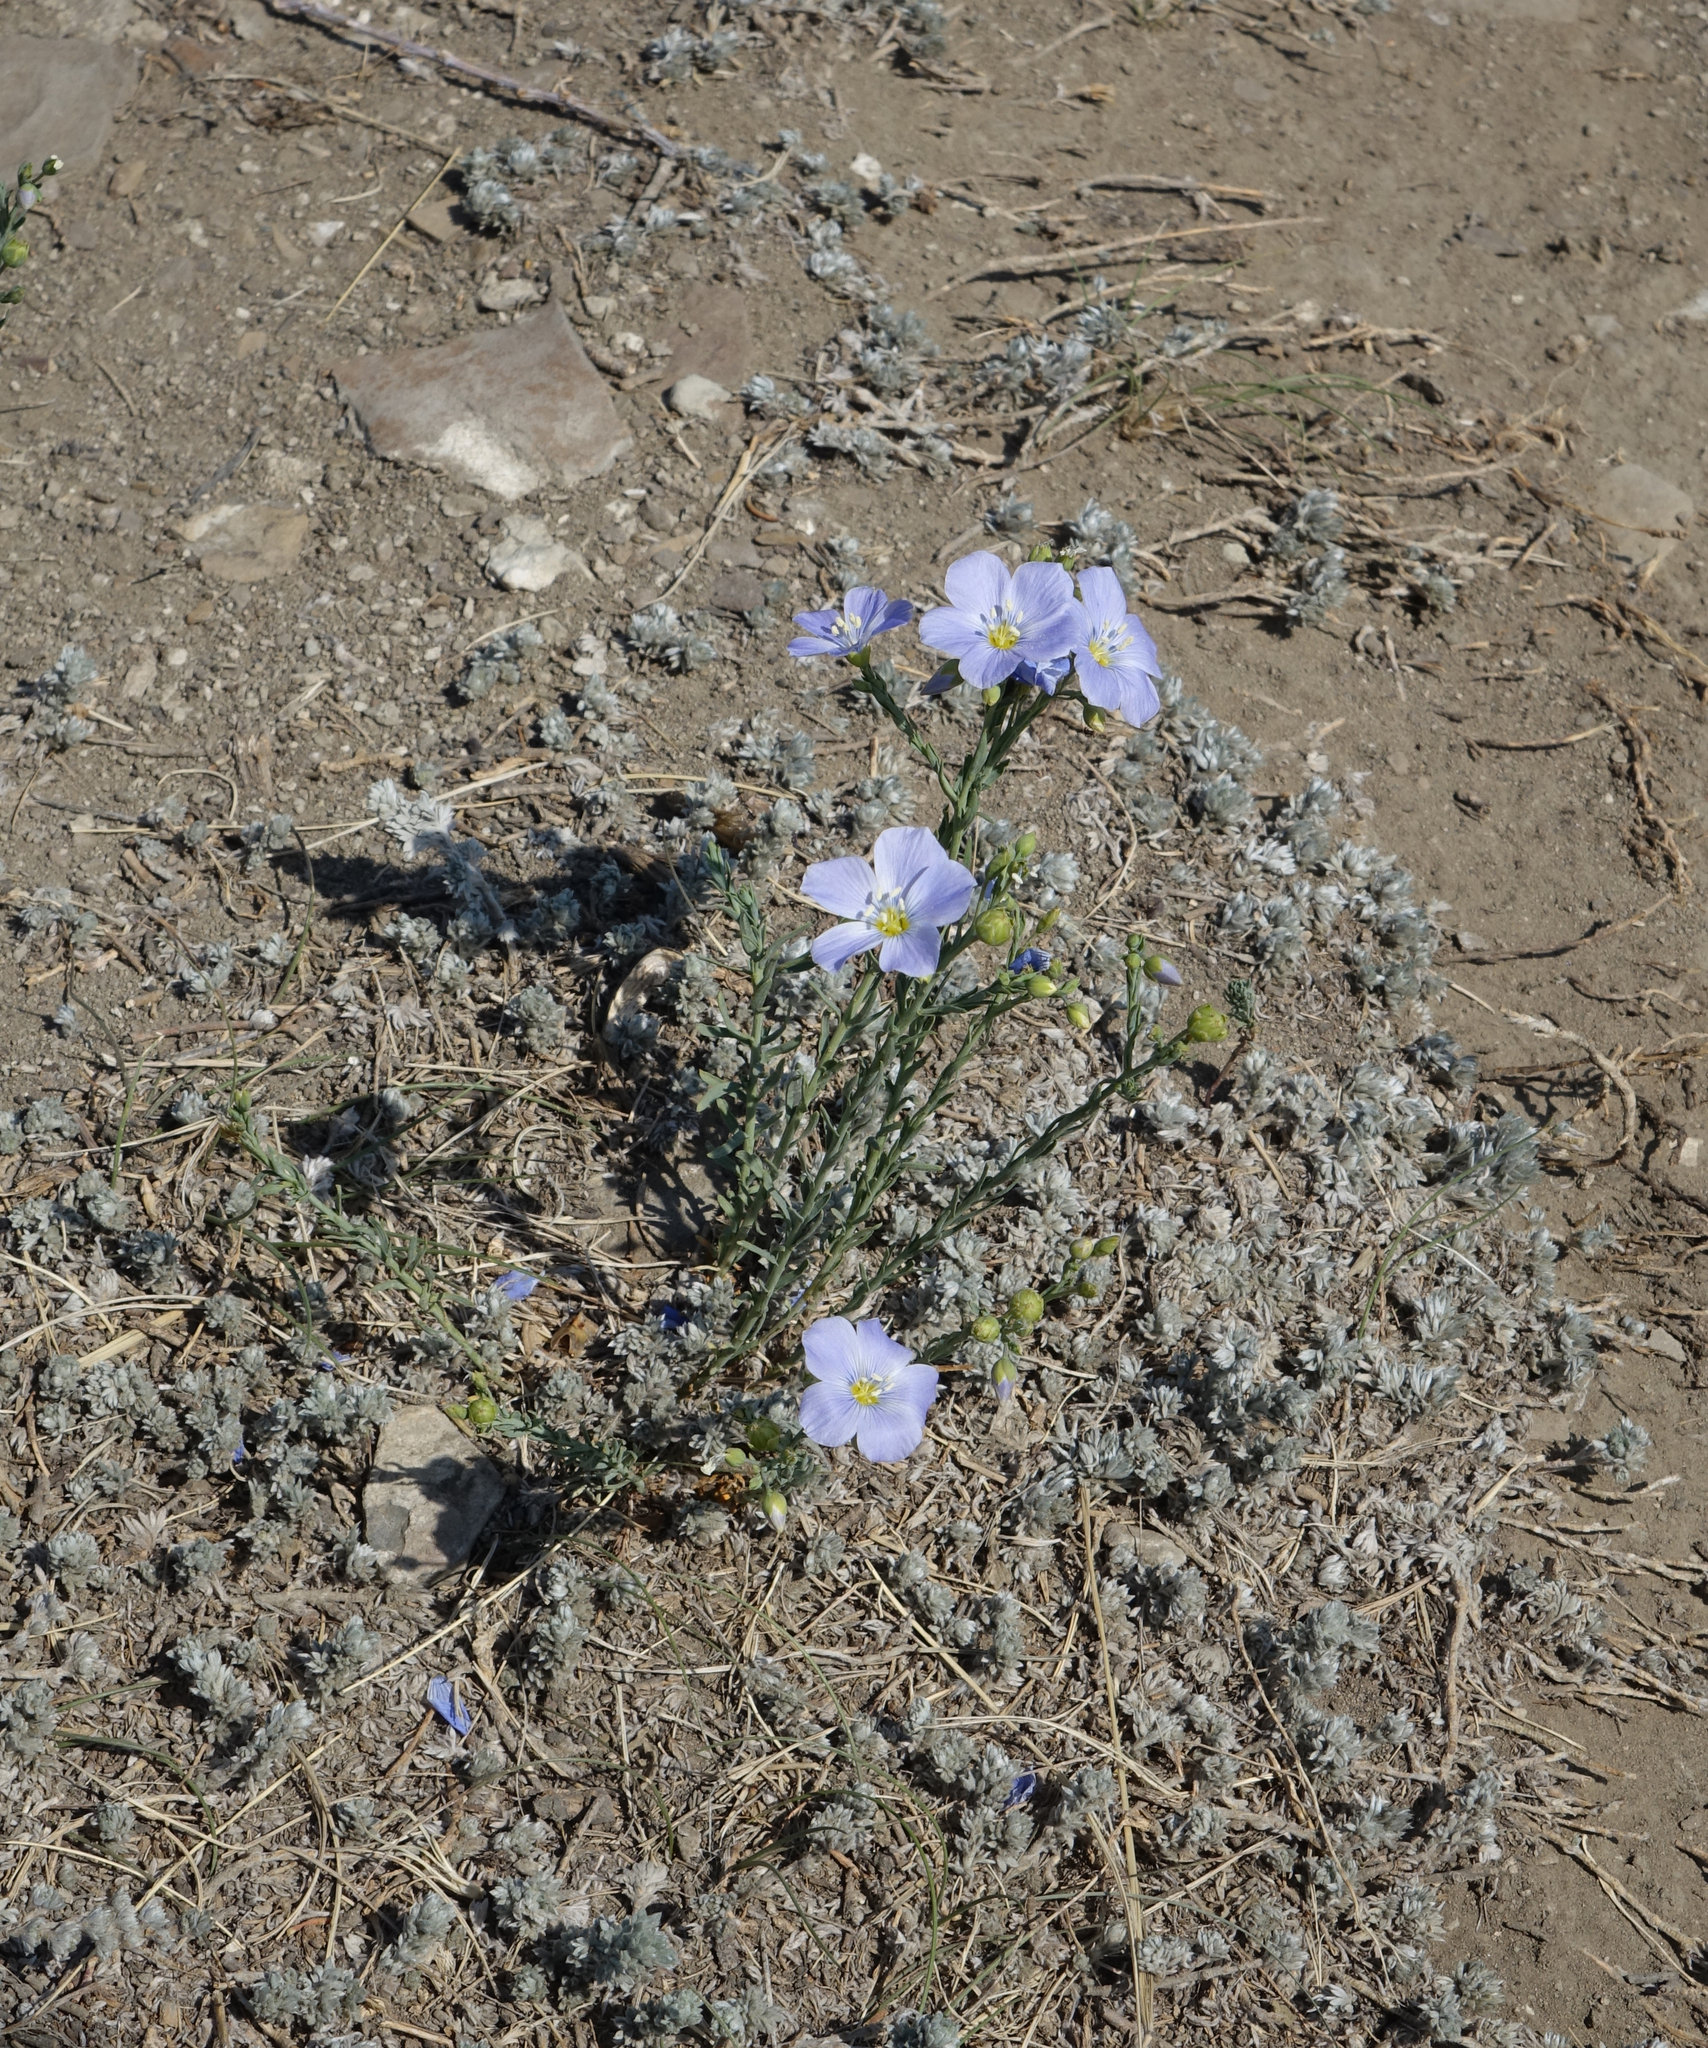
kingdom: Plantae
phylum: Tracheophyta
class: Magnoliopsida
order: Malpighiales
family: Linaceae
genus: Linum
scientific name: Linum perenne
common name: Blue flax
